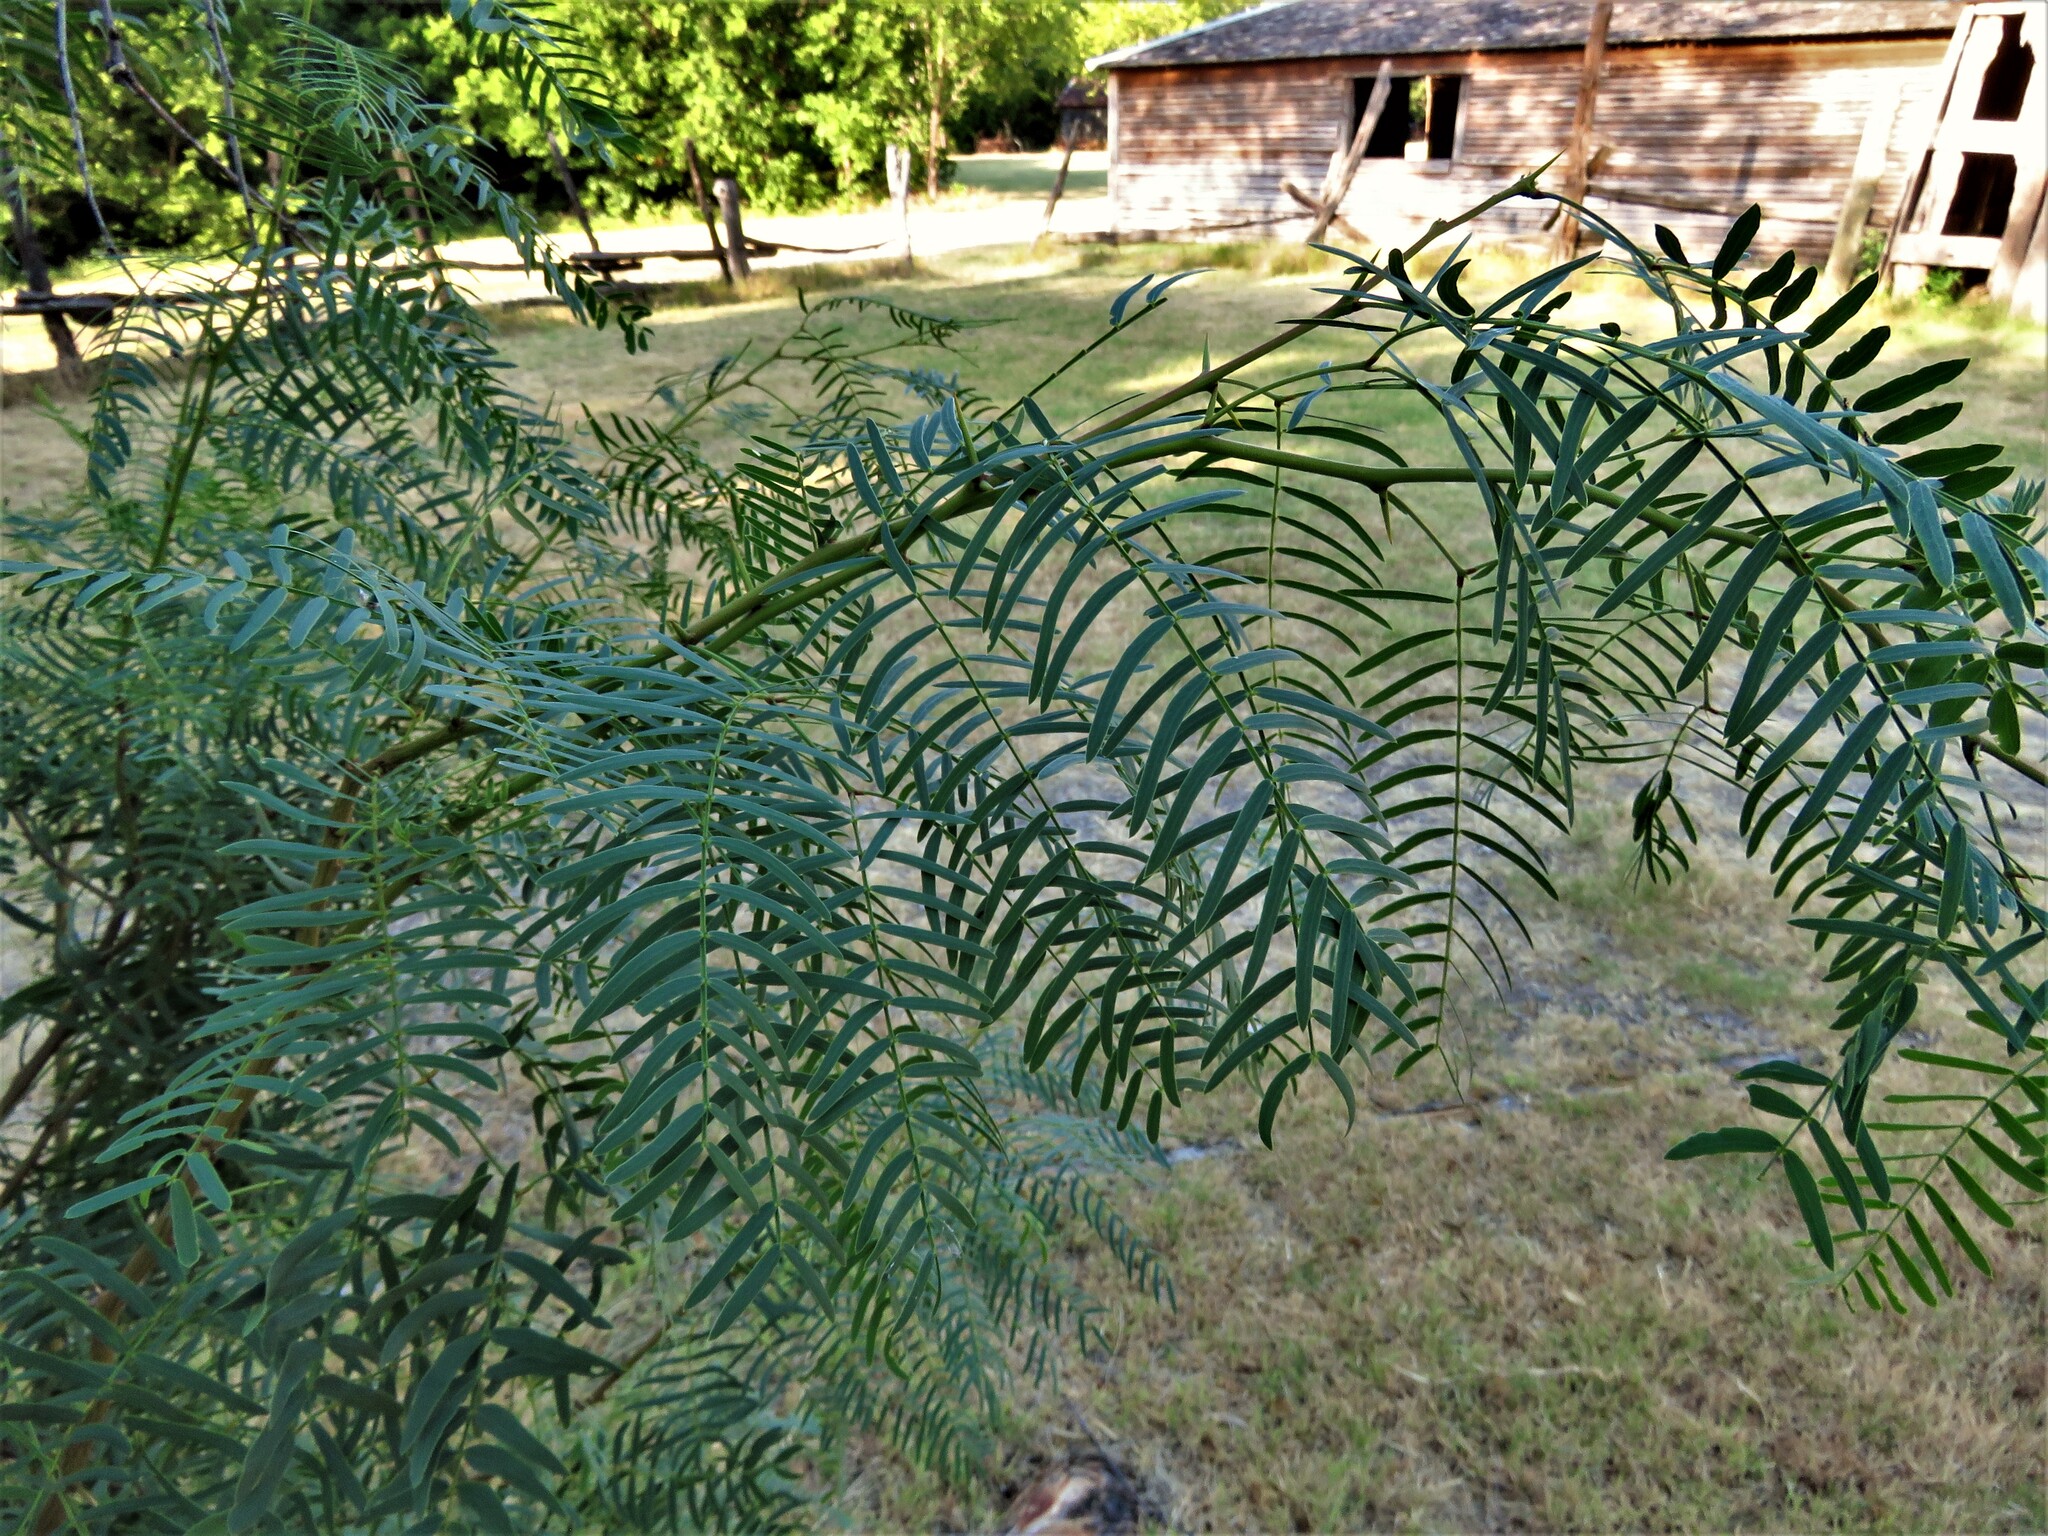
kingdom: Plantae
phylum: Tracheophyta
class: Magnoliopsida
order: Fabales
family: Fabaceae
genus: Prosopis
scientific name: Prosopis glandulosa
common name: Honey mesquite
